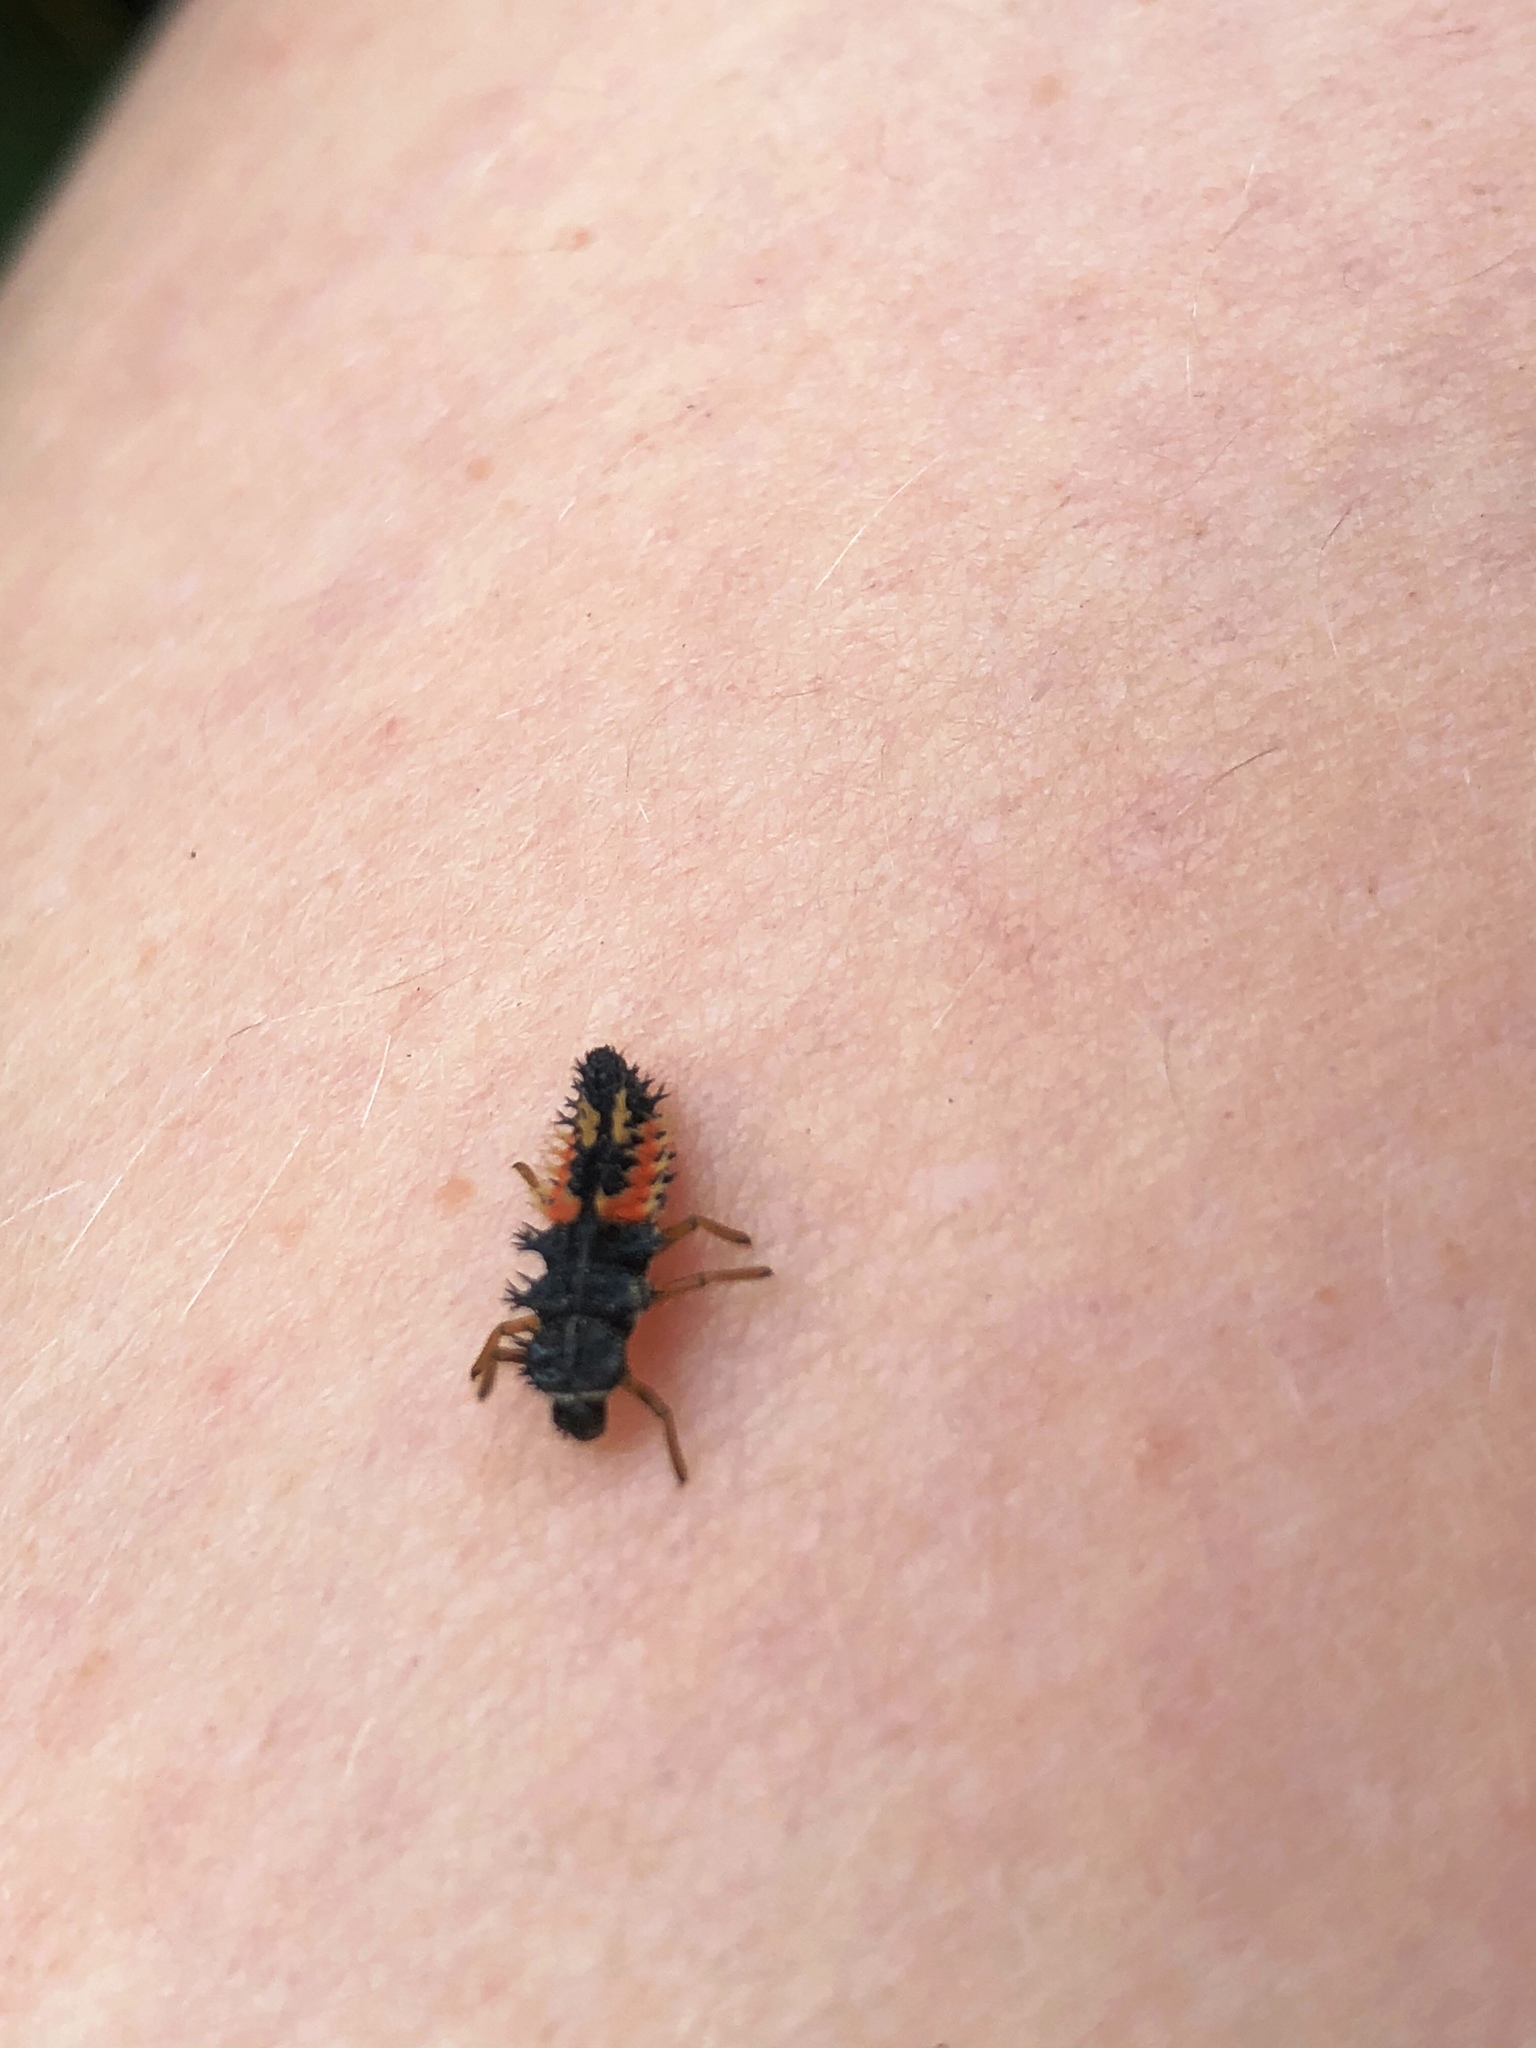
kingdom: Animalia
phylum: Arthropoda
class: Insecta
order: Coleoptera
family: Coccinellidae
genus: Harmonia
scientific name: Harmonia axyridis
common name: Harlequin ladybird
